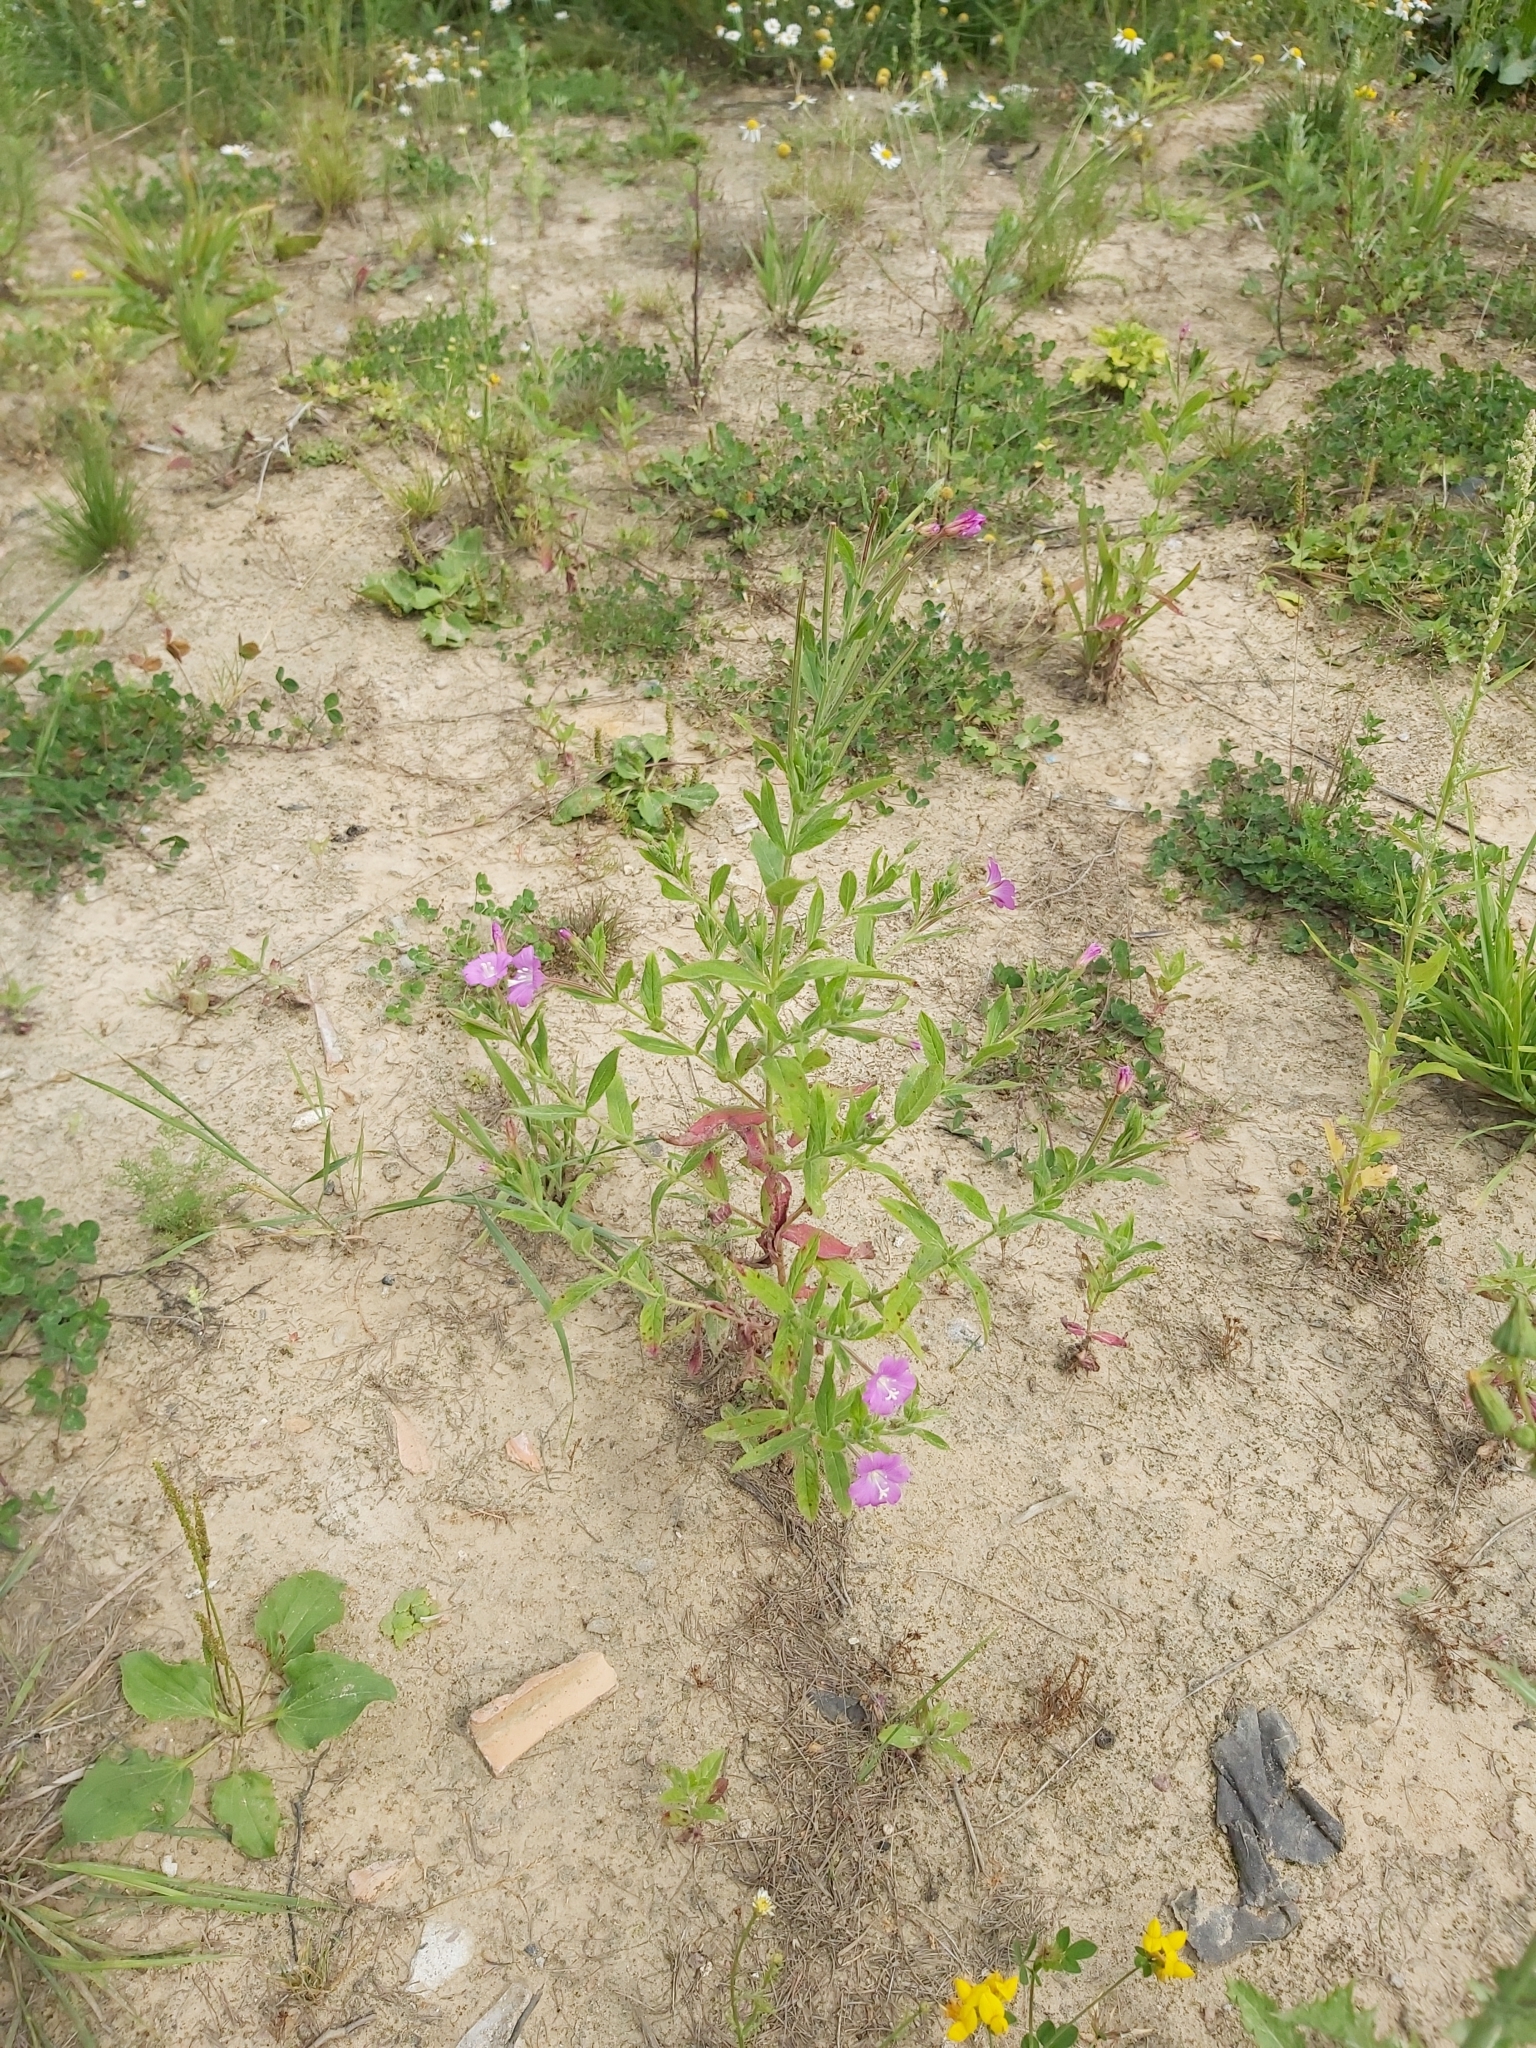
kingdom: Plantae
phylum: Tracheophyta
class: Magnoliopsida
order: Myrtales
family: Onagraceae
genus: Epilobium
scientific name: Epilobium hirsutum
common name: Great willowherb
